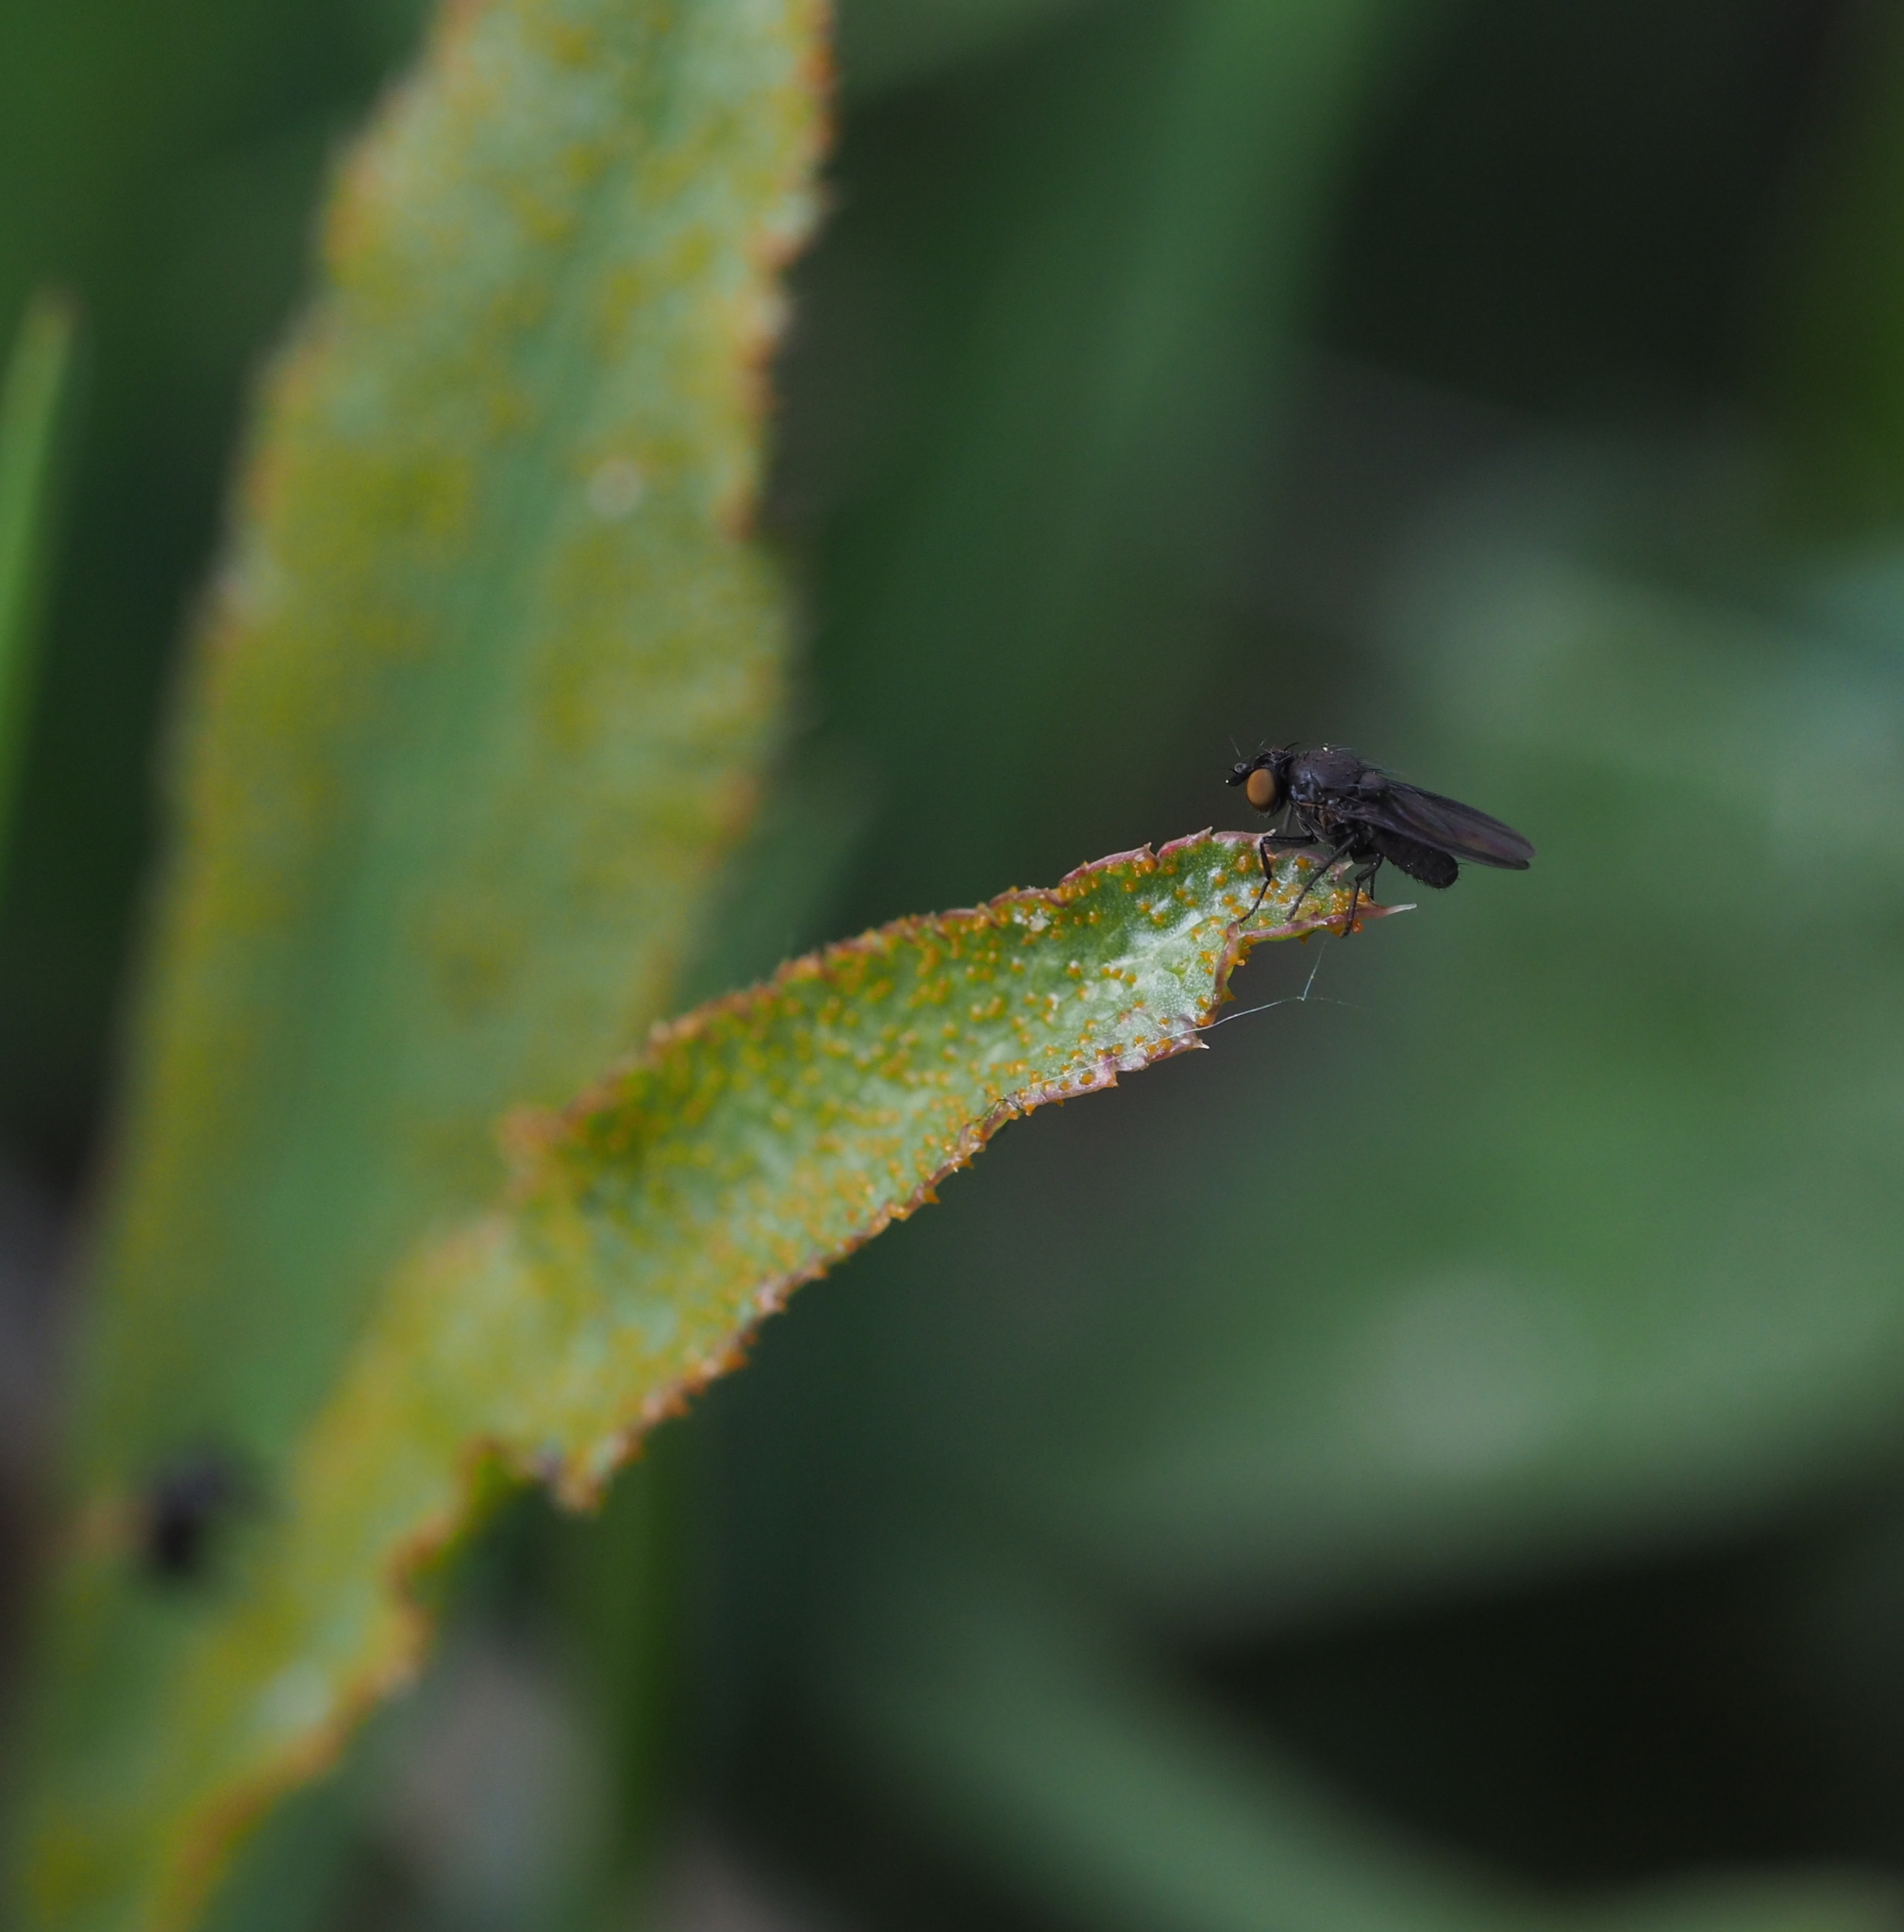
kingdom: Animalia
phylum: Arthropoda
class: Insecta
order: Diptera
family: Lauxaniidae
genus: Cnemacantha
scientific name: Cnemacantha muscaria
